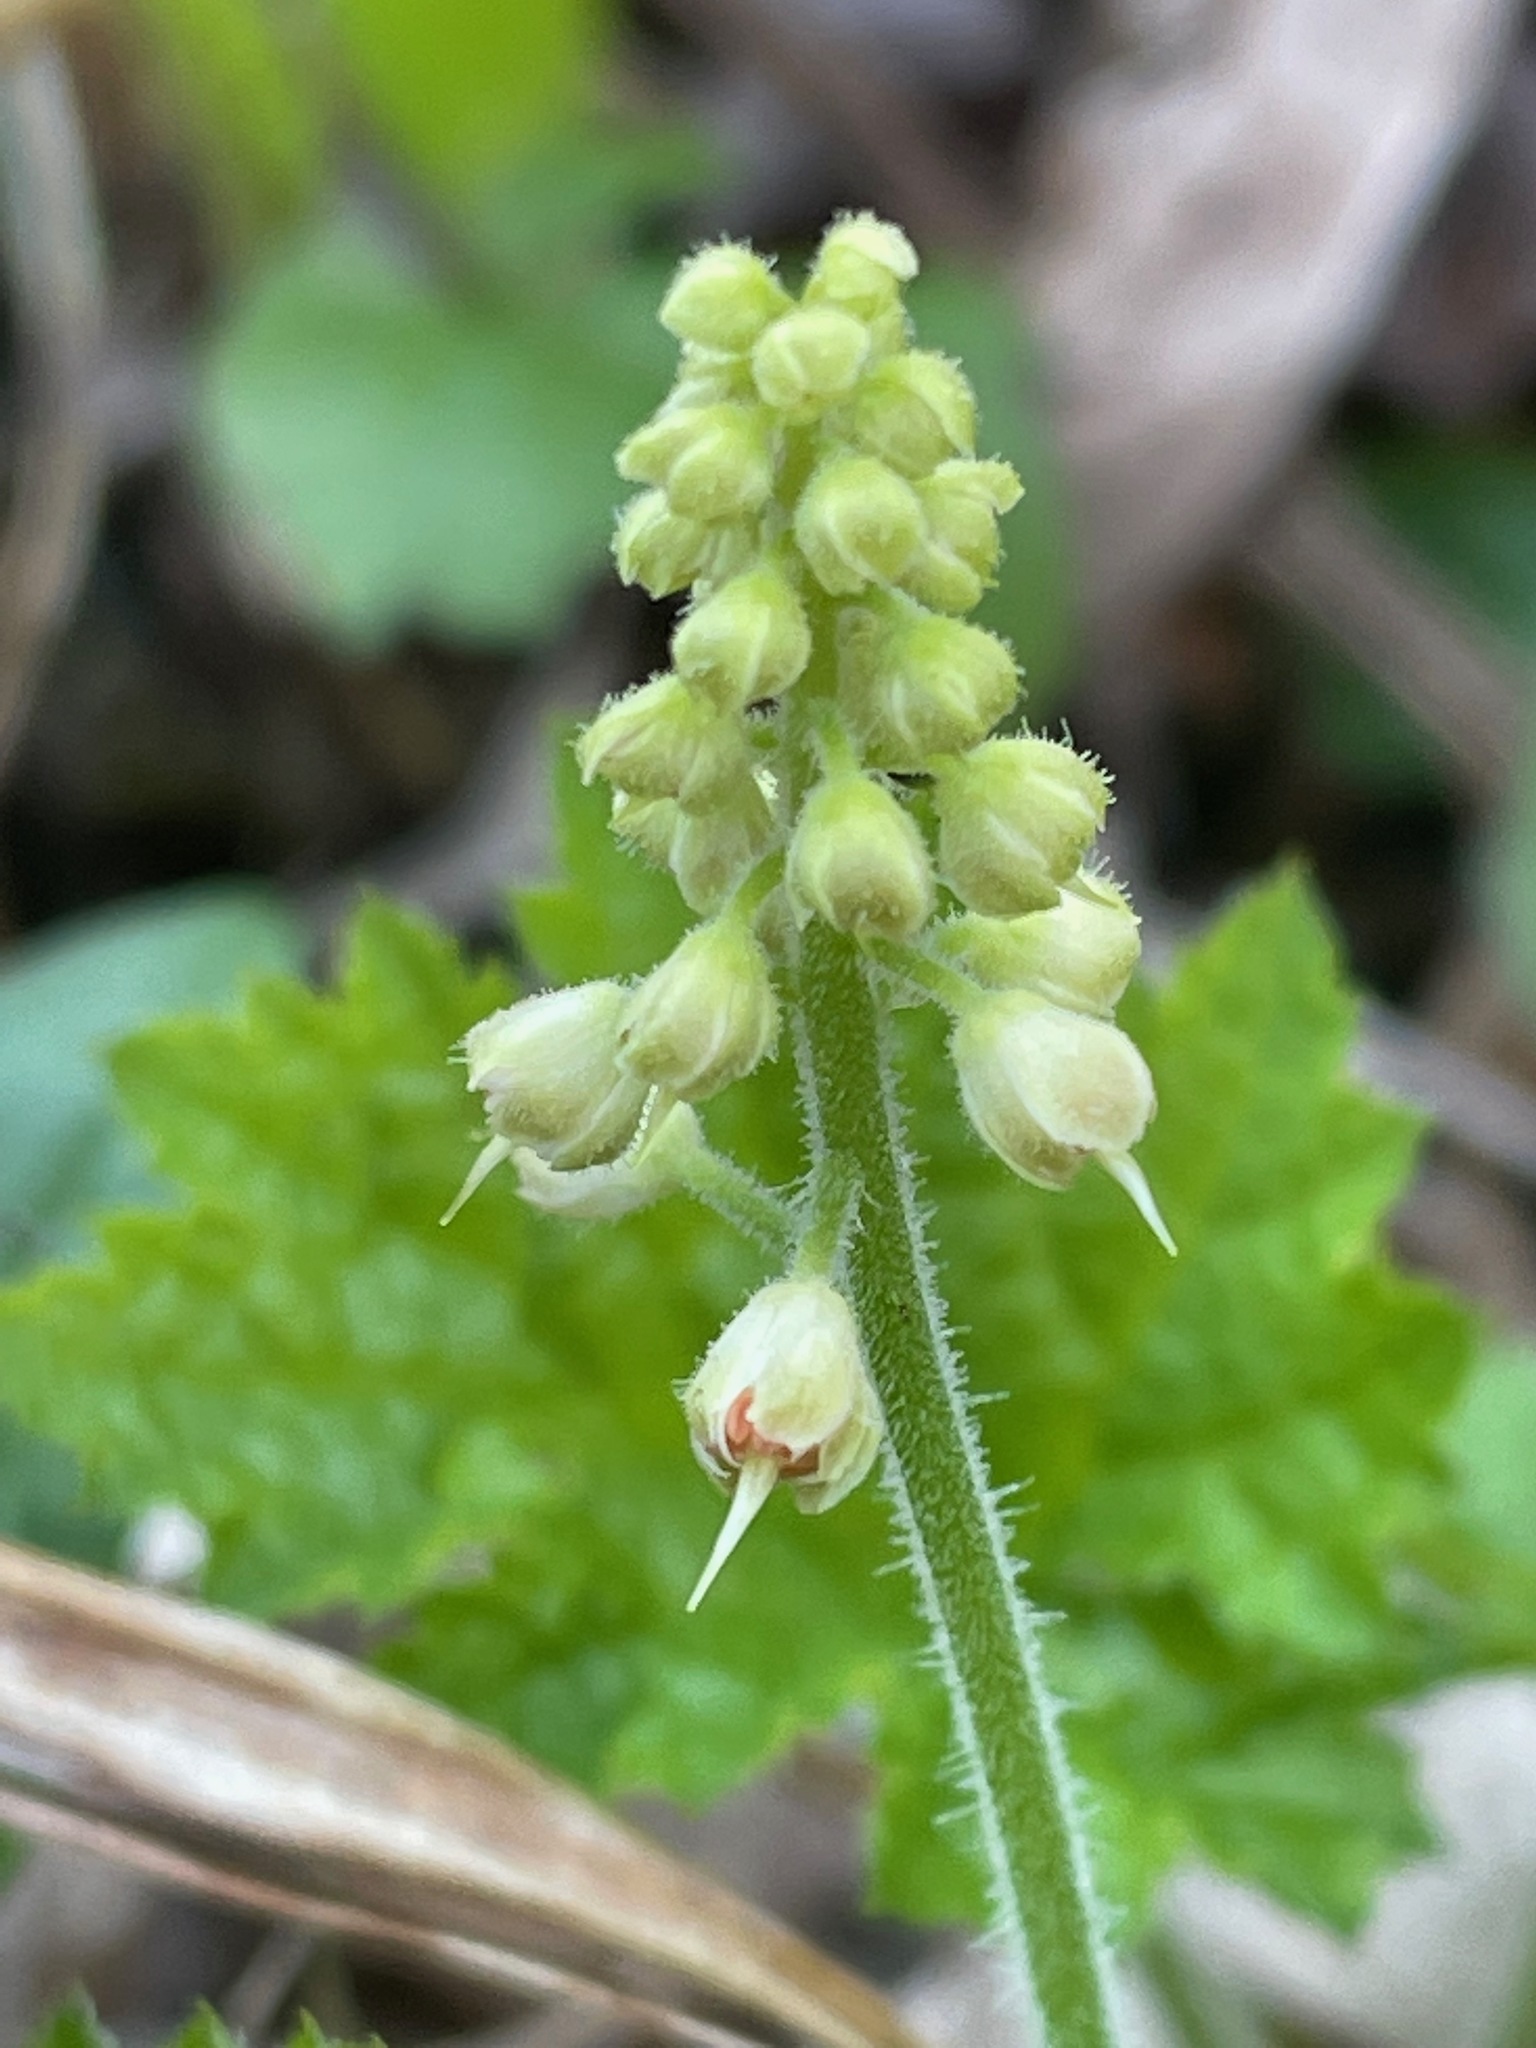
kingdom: Plantae
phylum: Tracheophyta
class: Magnoliopsida
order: Saxifragales
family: Saxifragaceae
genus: Tiarella
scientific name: Tiarella stolonifera
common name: Stoloniferous foamflower
